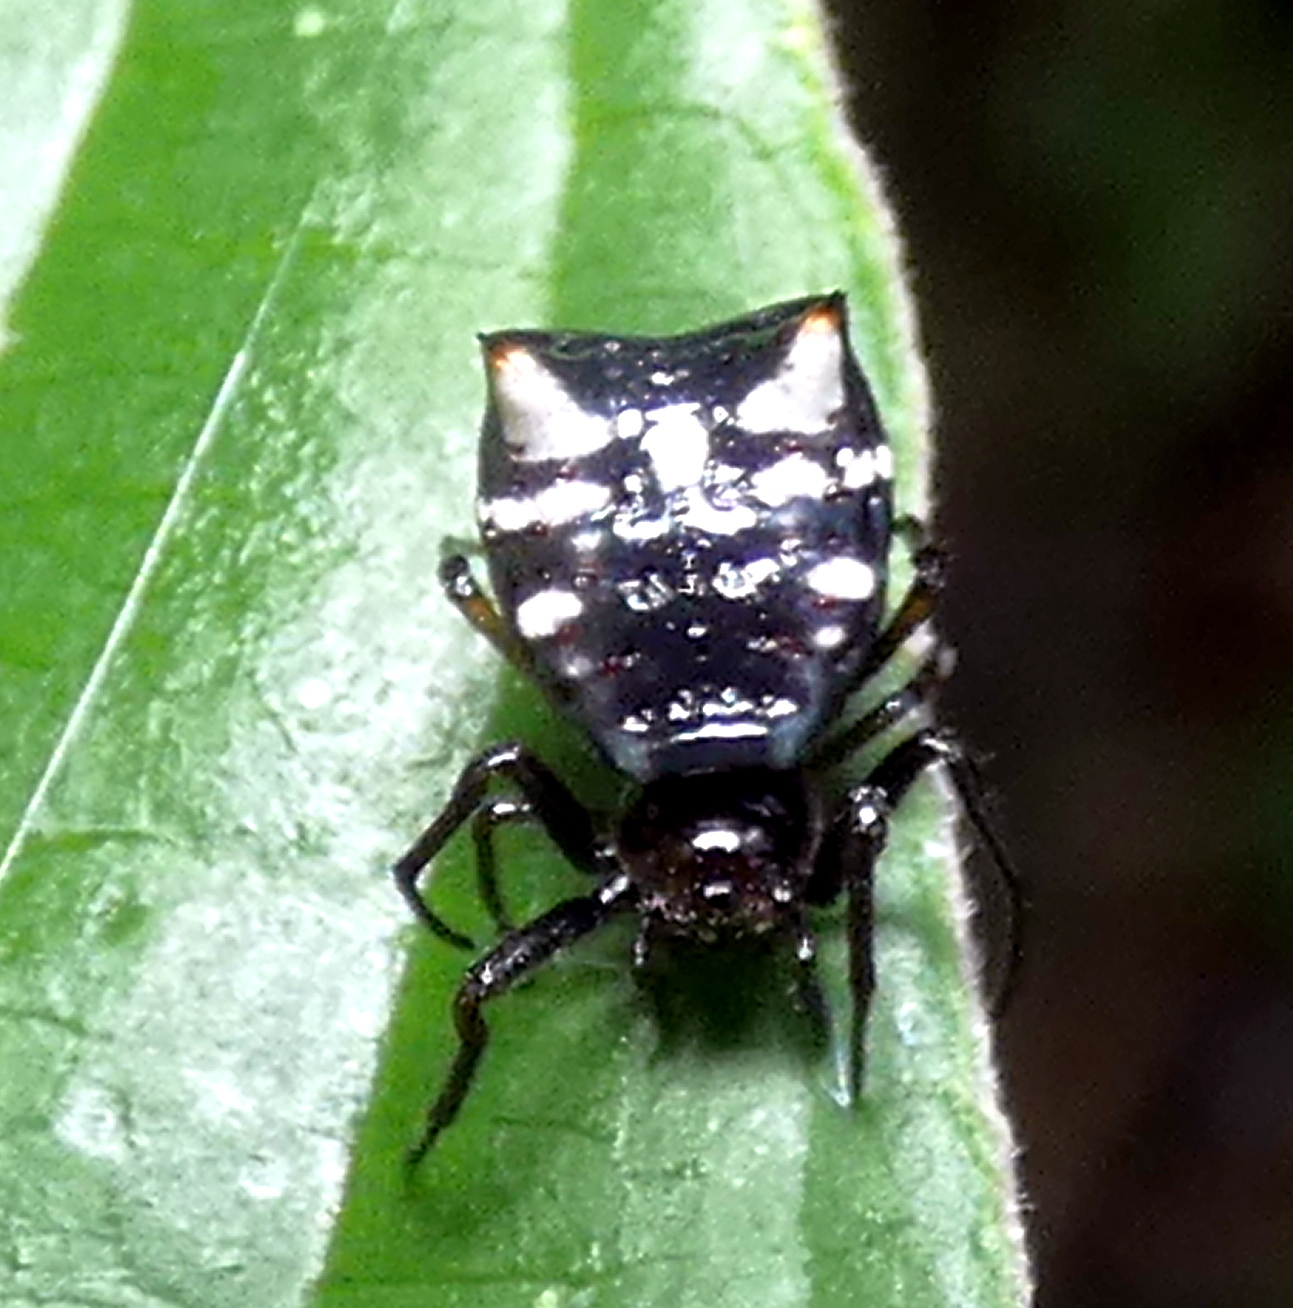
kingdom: Animalia
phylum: Arthropoda
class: Arachnida
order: Araneae
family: Araneidae
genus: Micrathena
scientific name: Micrathena patruelis
